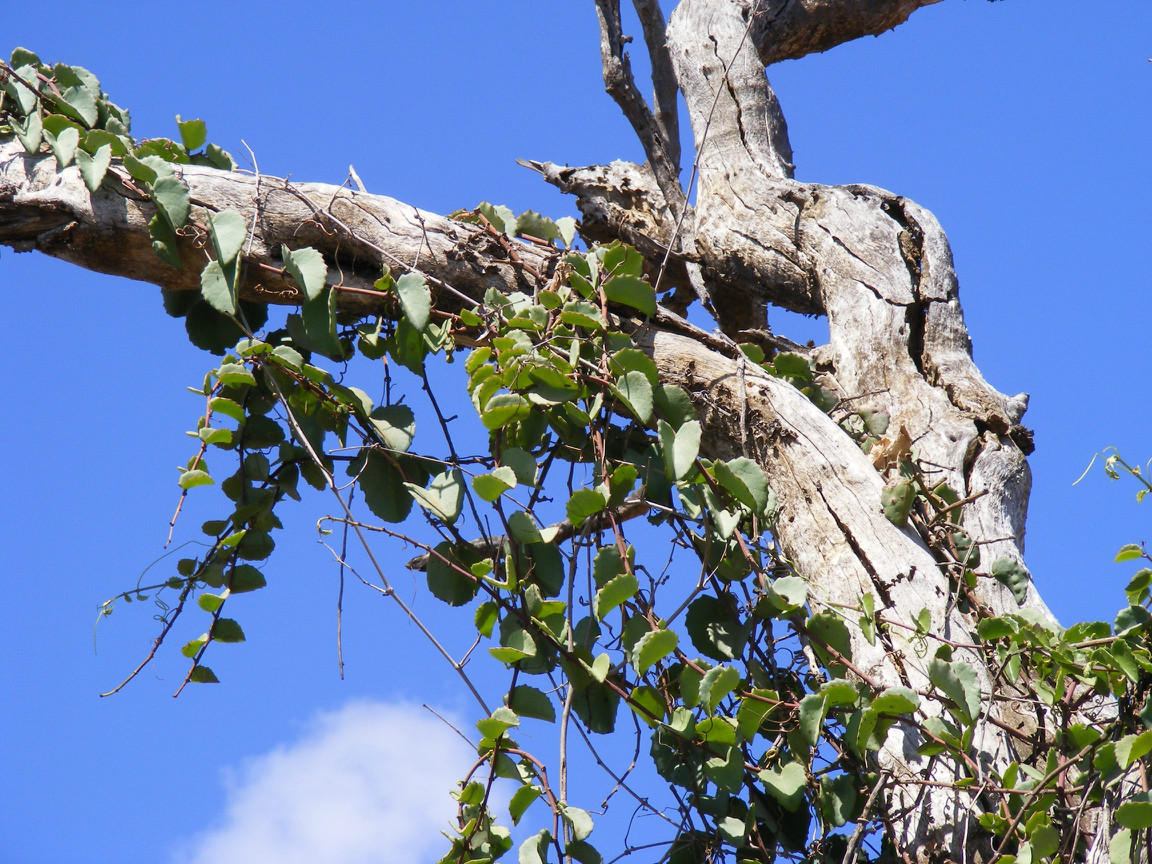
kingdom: Plantae
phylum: Tracheophyta
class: Magnoliopsida
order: Vitales
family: Vitaceae
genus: Cissus
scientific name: Cissus rotundifolia
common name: Arabian wax cissus
